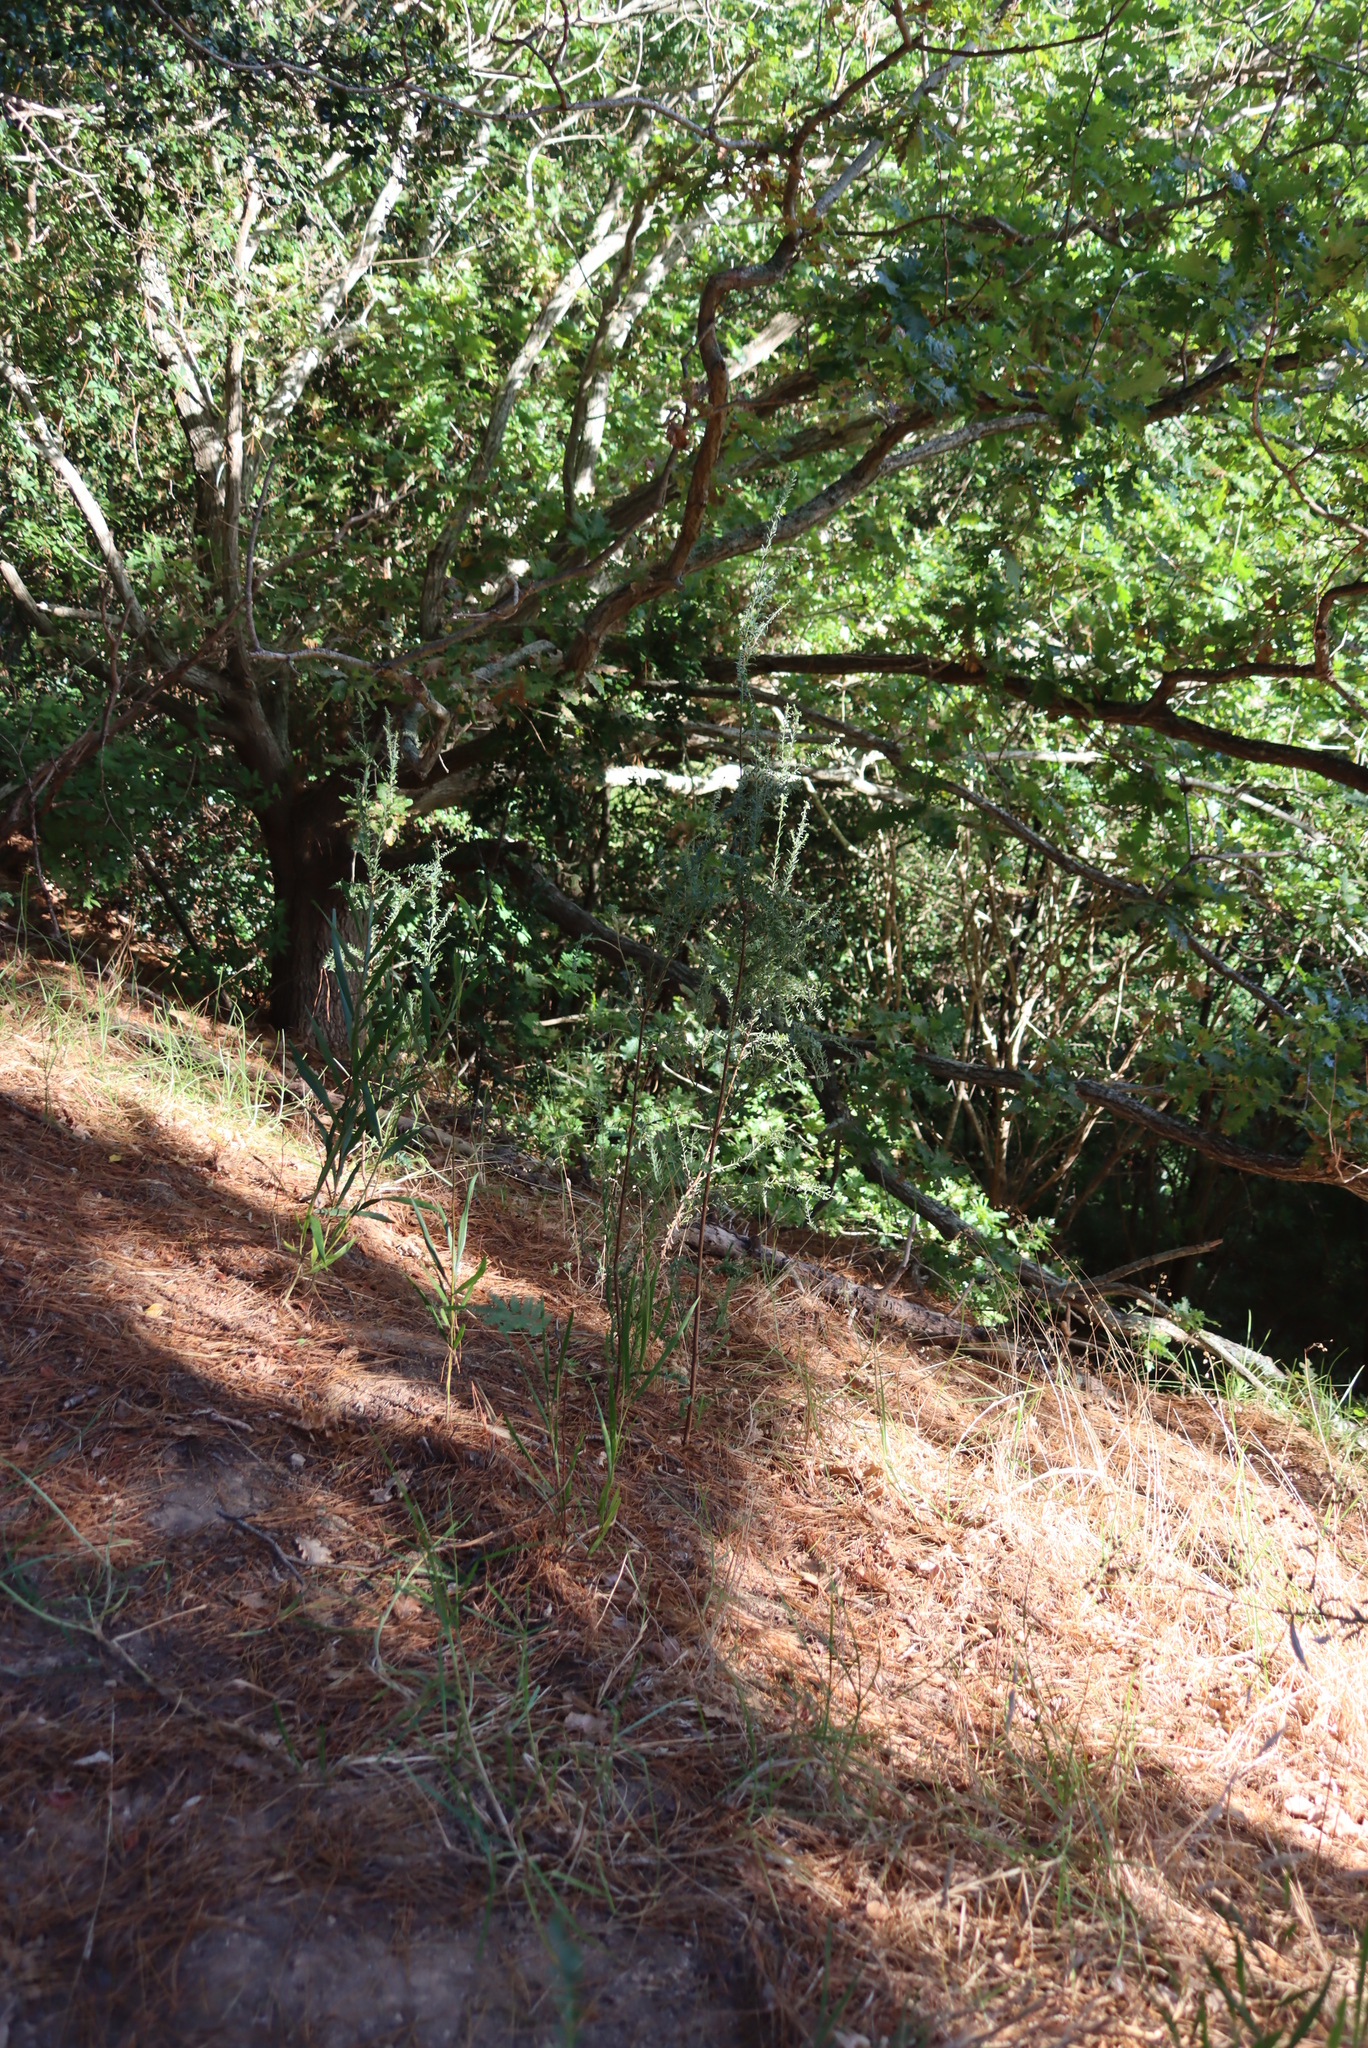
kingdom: Plantae
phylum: Tracheophyta
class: Magnoliopsida
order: Fabales
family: Fabaceae
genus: Acacia
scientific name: Acacia longifolia
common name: Sydney golden wattle
